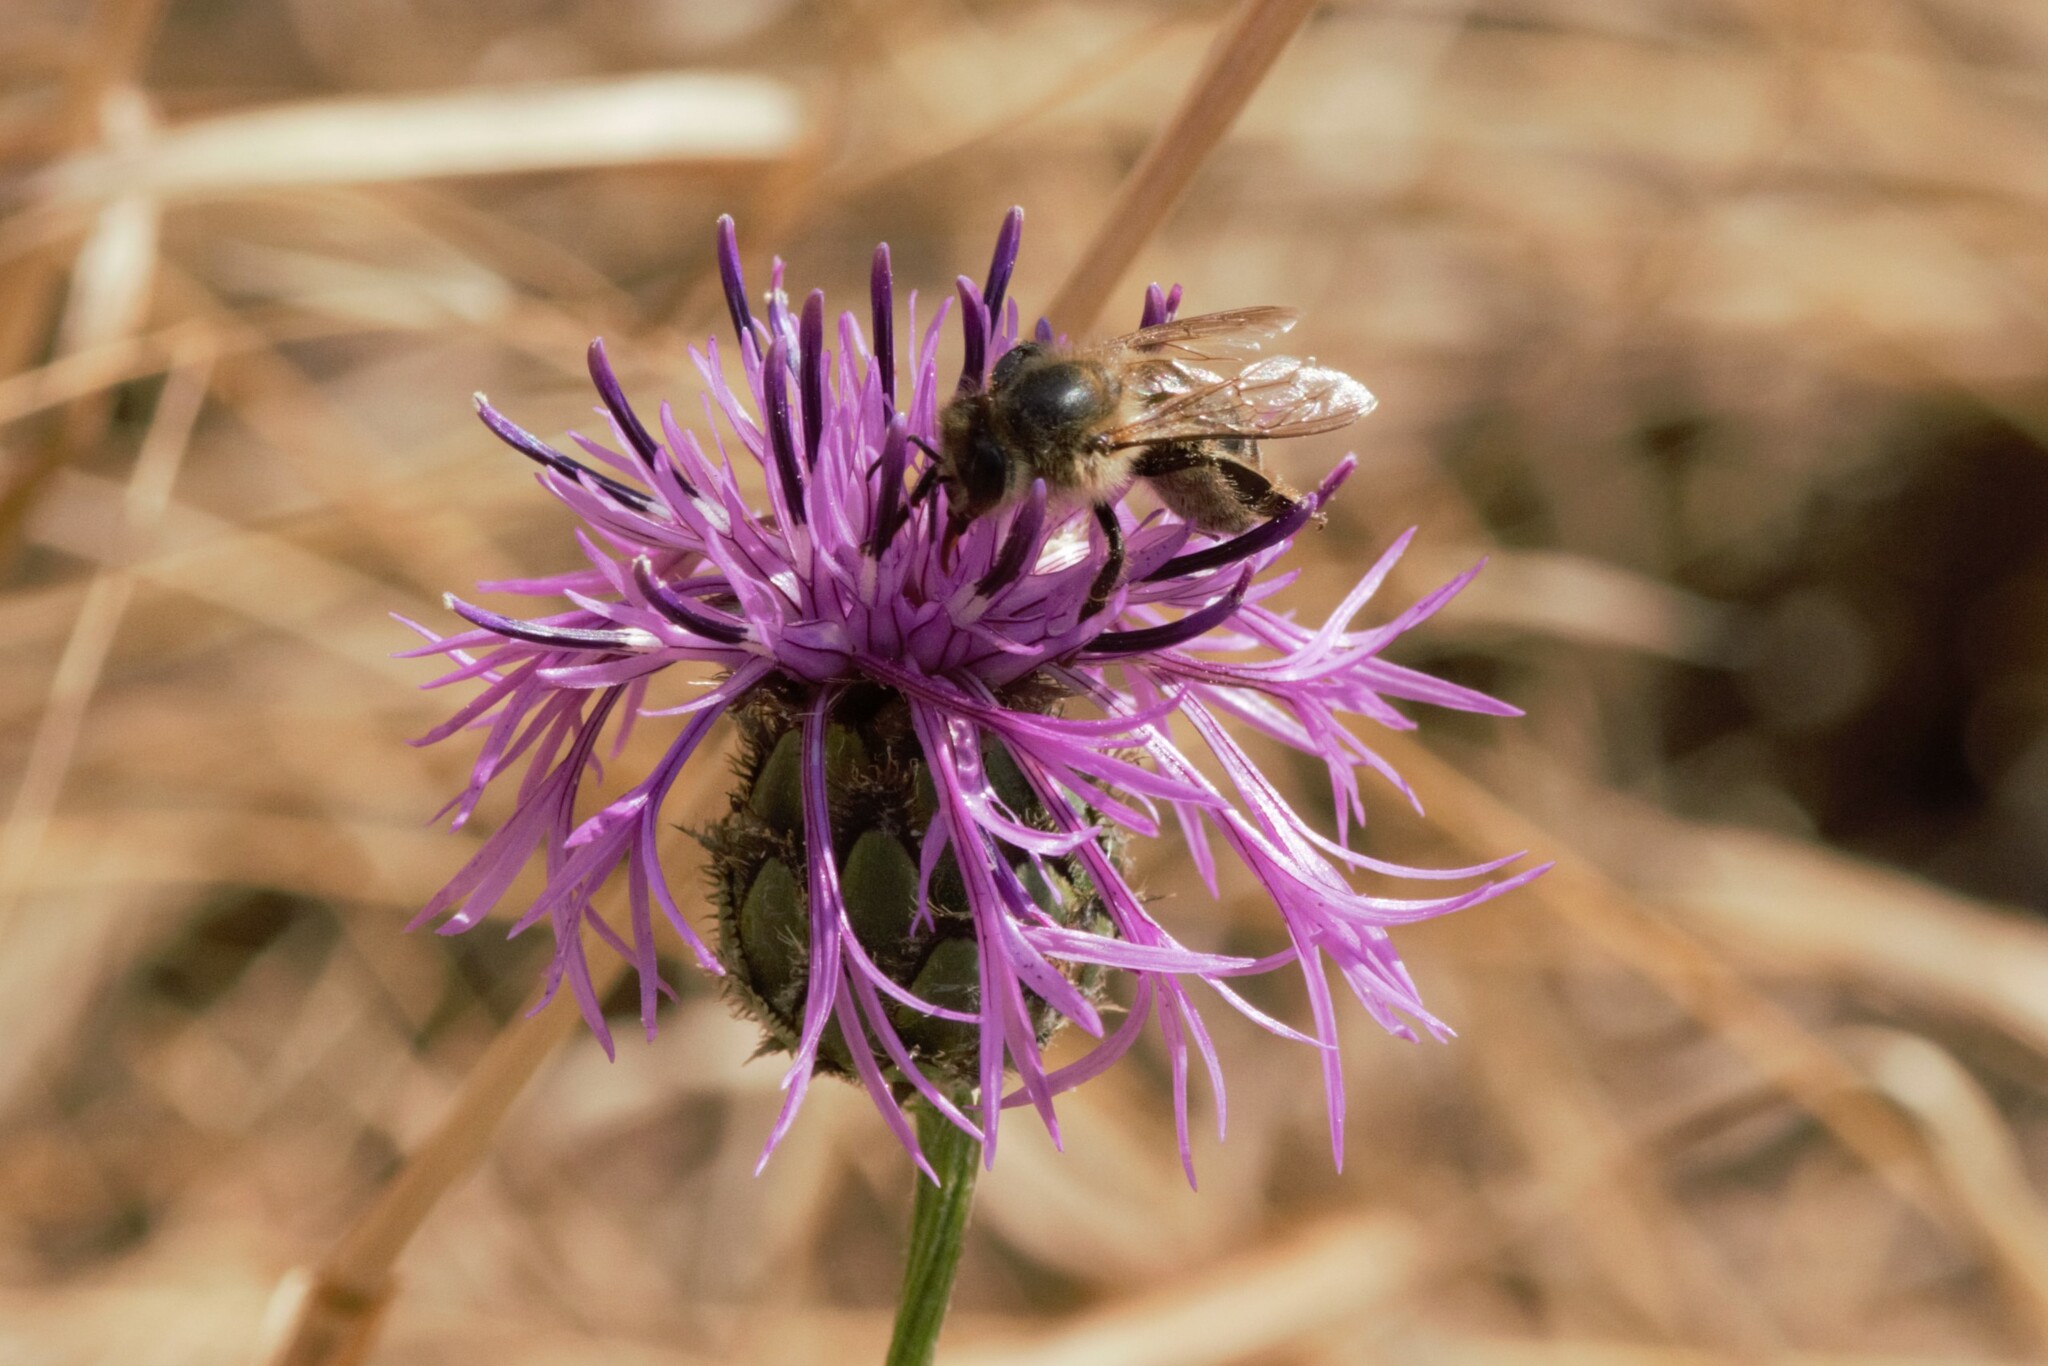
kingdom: Animalia
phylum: Arthropoda
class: Insecta
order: Hymenoptera
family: Apidae
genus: Apis
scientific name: Apis mellifera
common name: Honey bee
